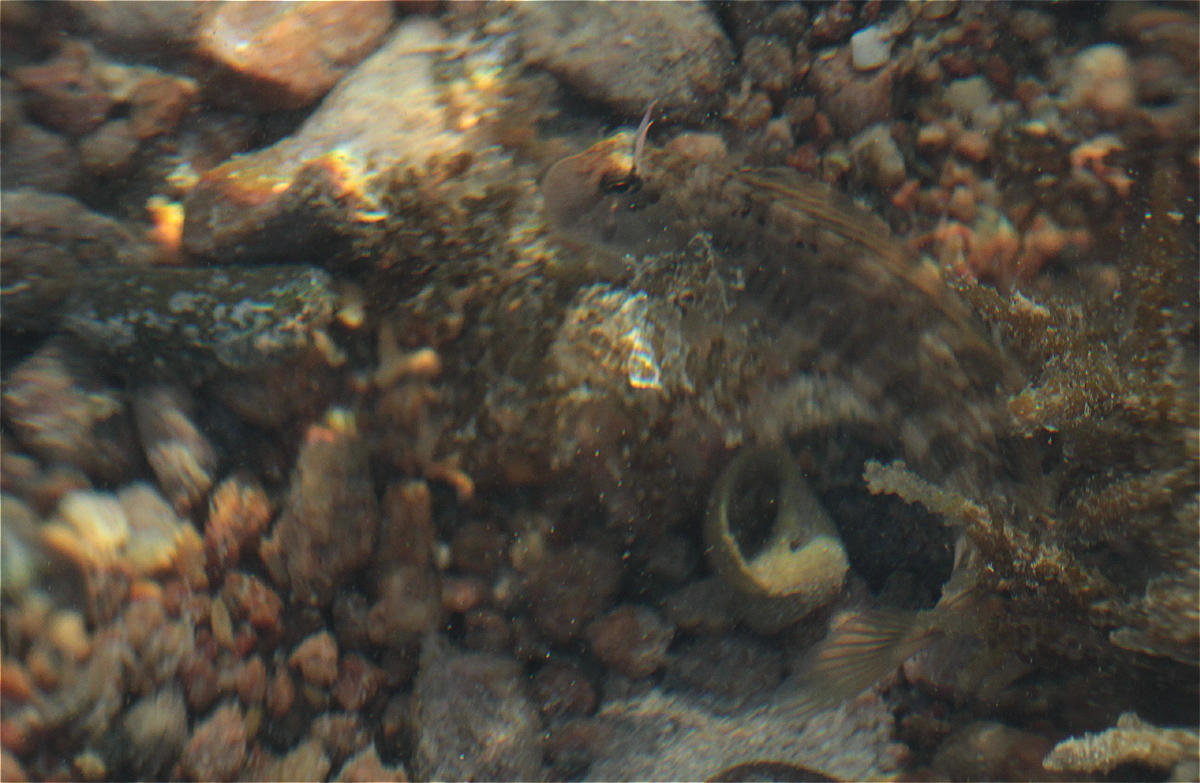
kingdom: Animalia
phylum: Chordata
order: Perciformes
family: Blenniidae
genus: Istiblennius
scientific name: Istiblennius rivulatus
